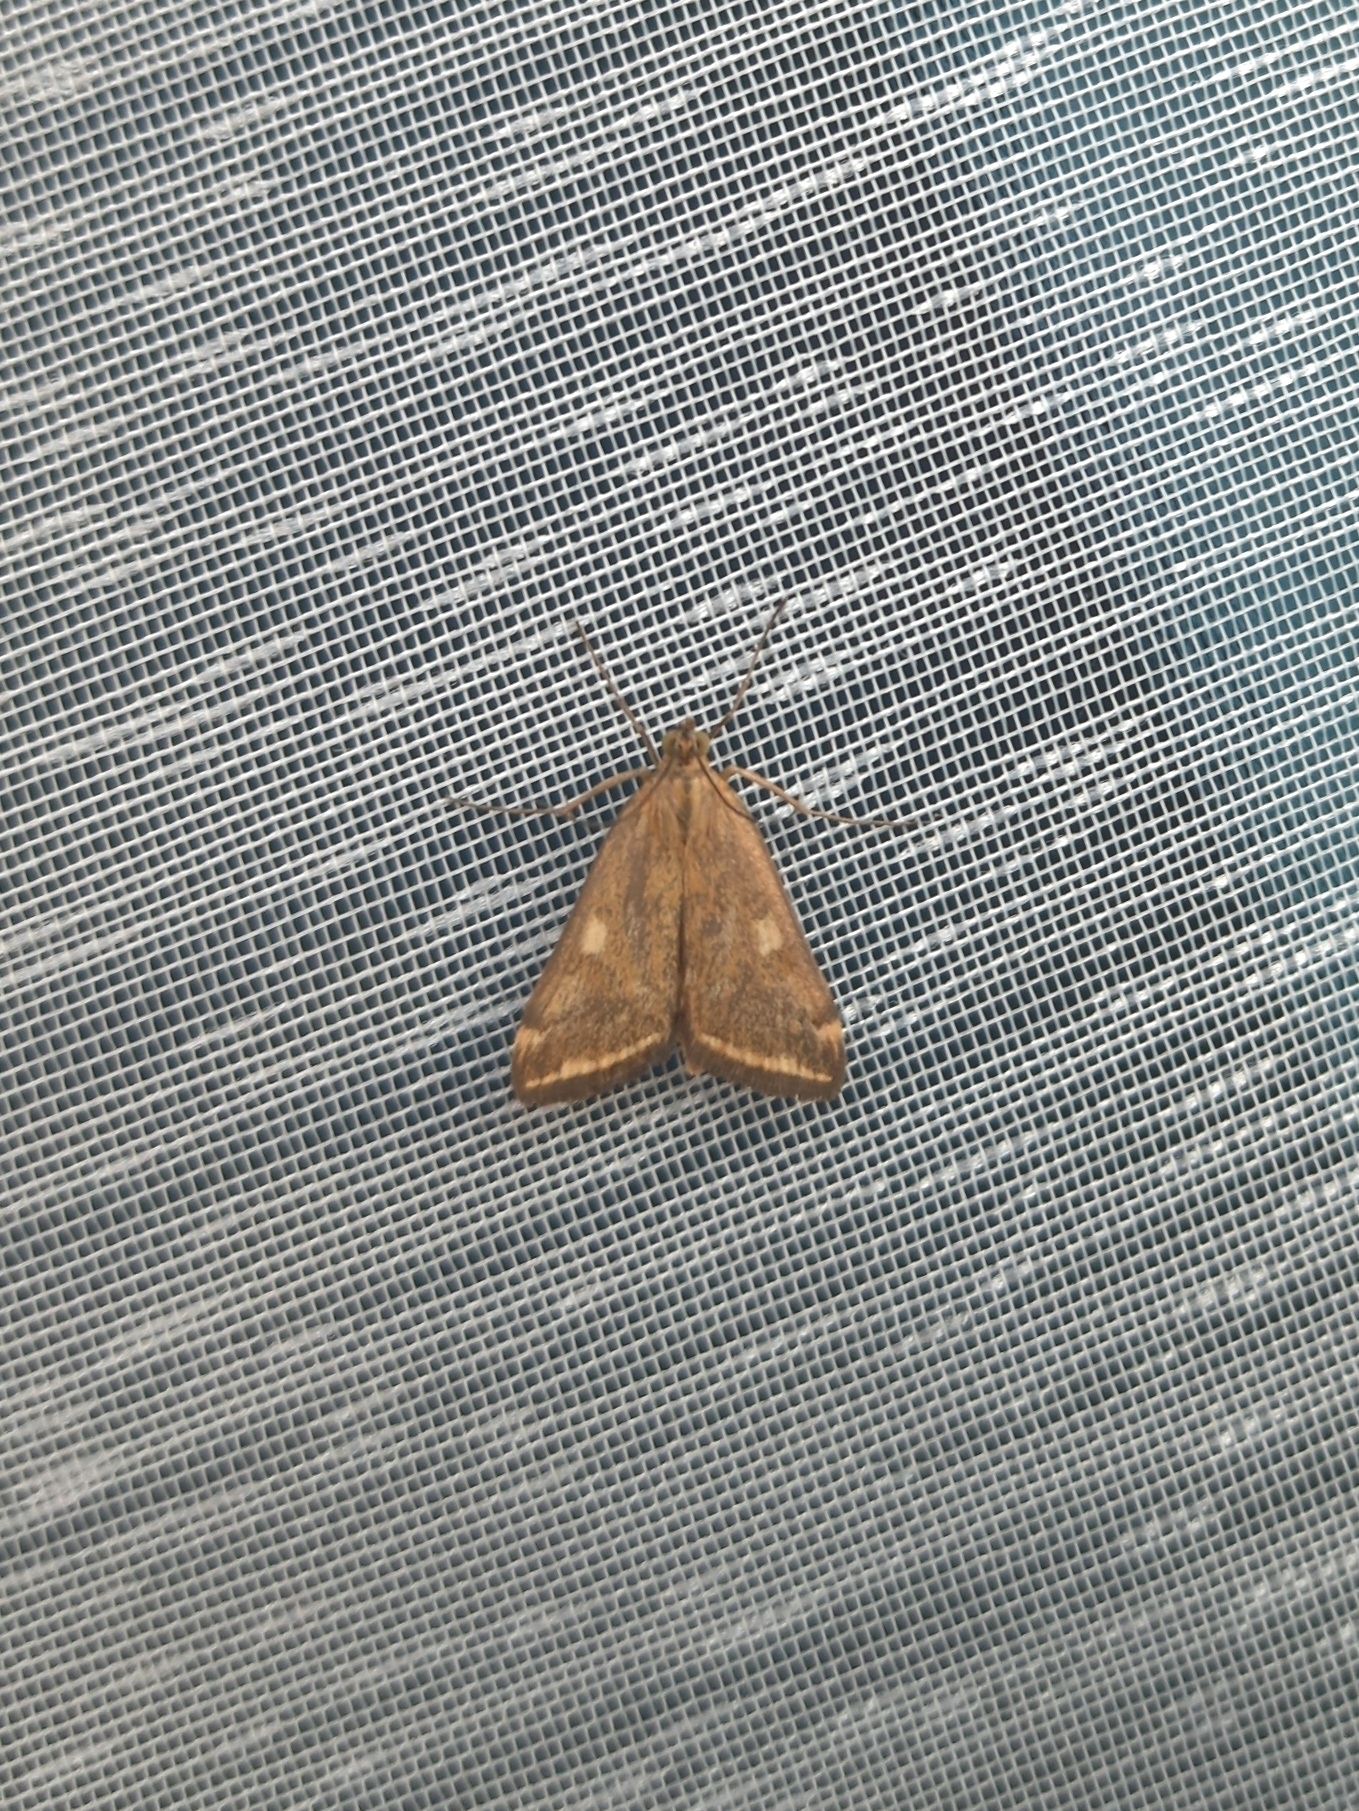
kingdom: Animalia
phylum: Arthropoda
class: Insecta
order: Lepidoptera
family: Crambidae
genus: Loxostege
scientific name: Loxostege sticticalis
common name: Crambid moth
